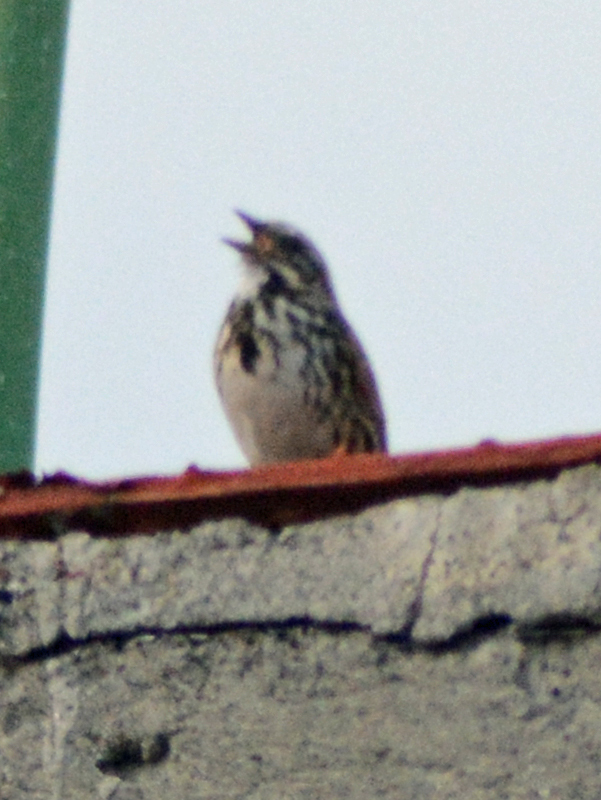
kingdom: Animalia
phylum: Chordata
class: Aves
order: Passeriformes
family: Passerellidae
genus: Melospiza
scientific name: Melospiza melodia
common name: Song sparrow
